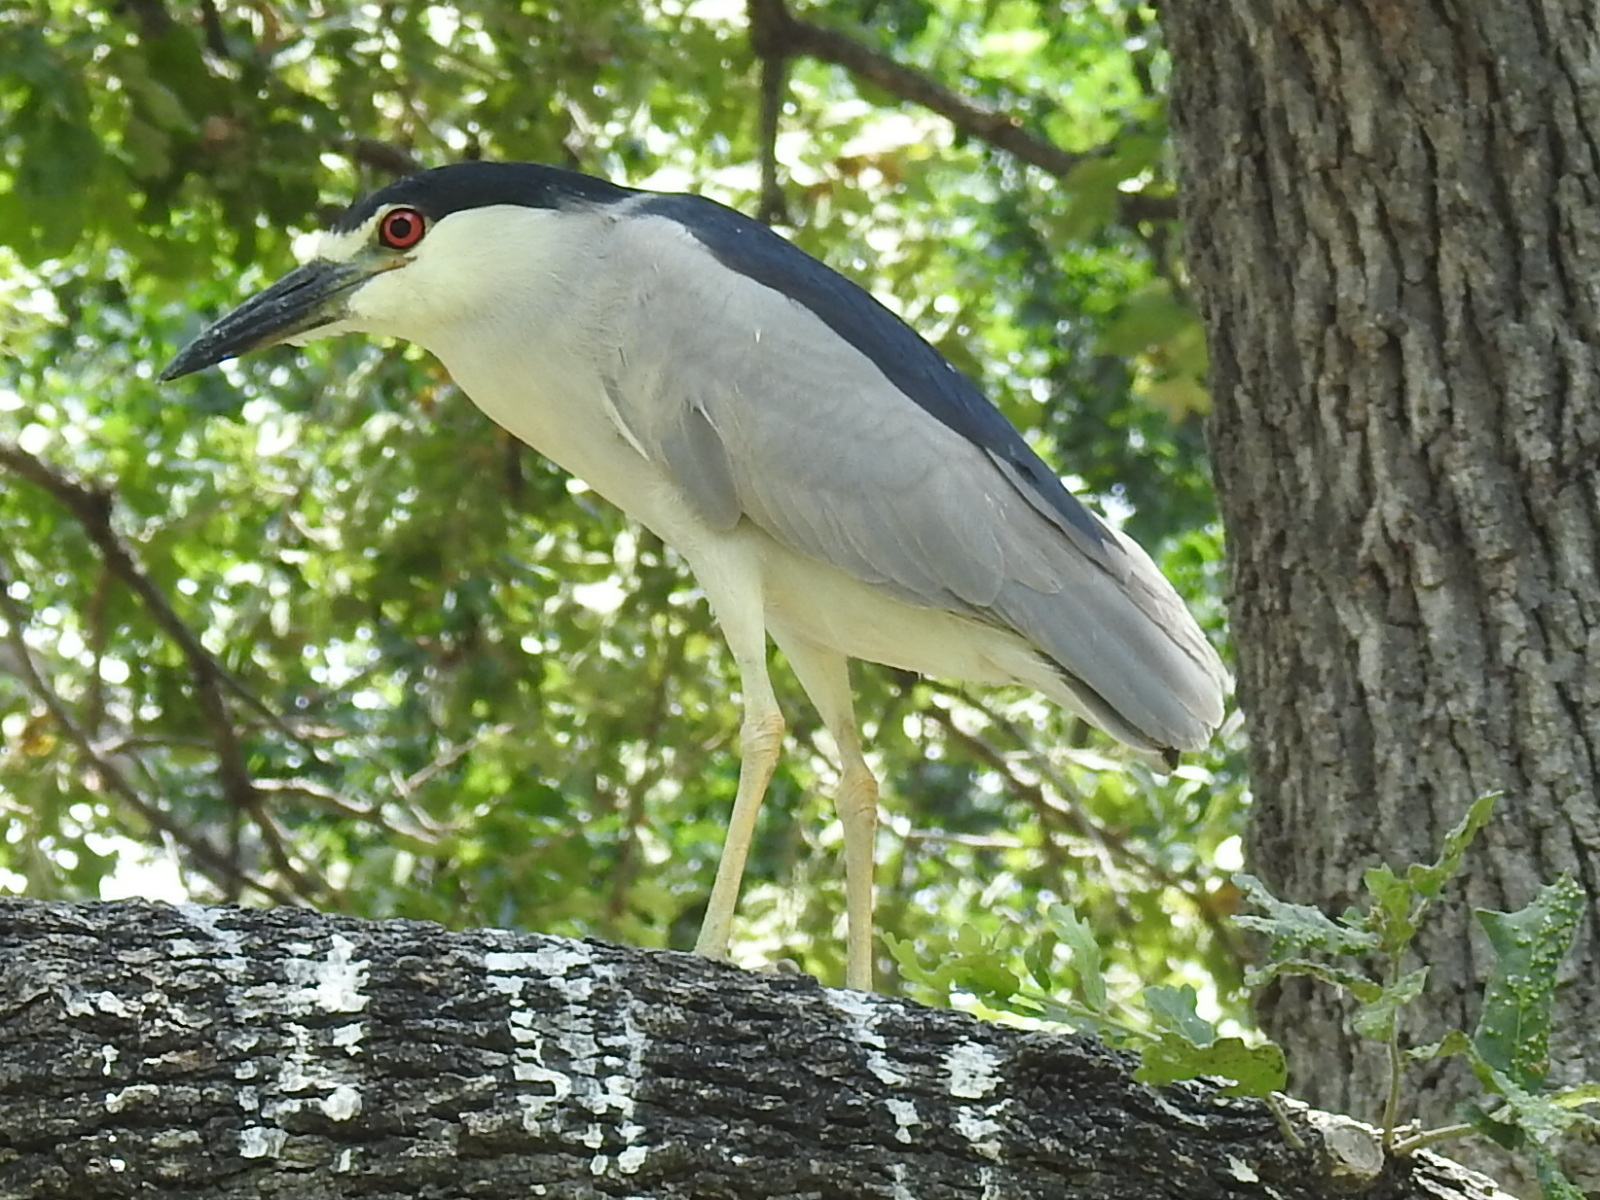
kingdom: Animalia
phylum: Chordata
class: Aves
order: Pelecaniformes
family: Ardeidae
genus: Nycticorax
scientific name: Nycticorax nycticorax
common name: Black-crowned night heron
